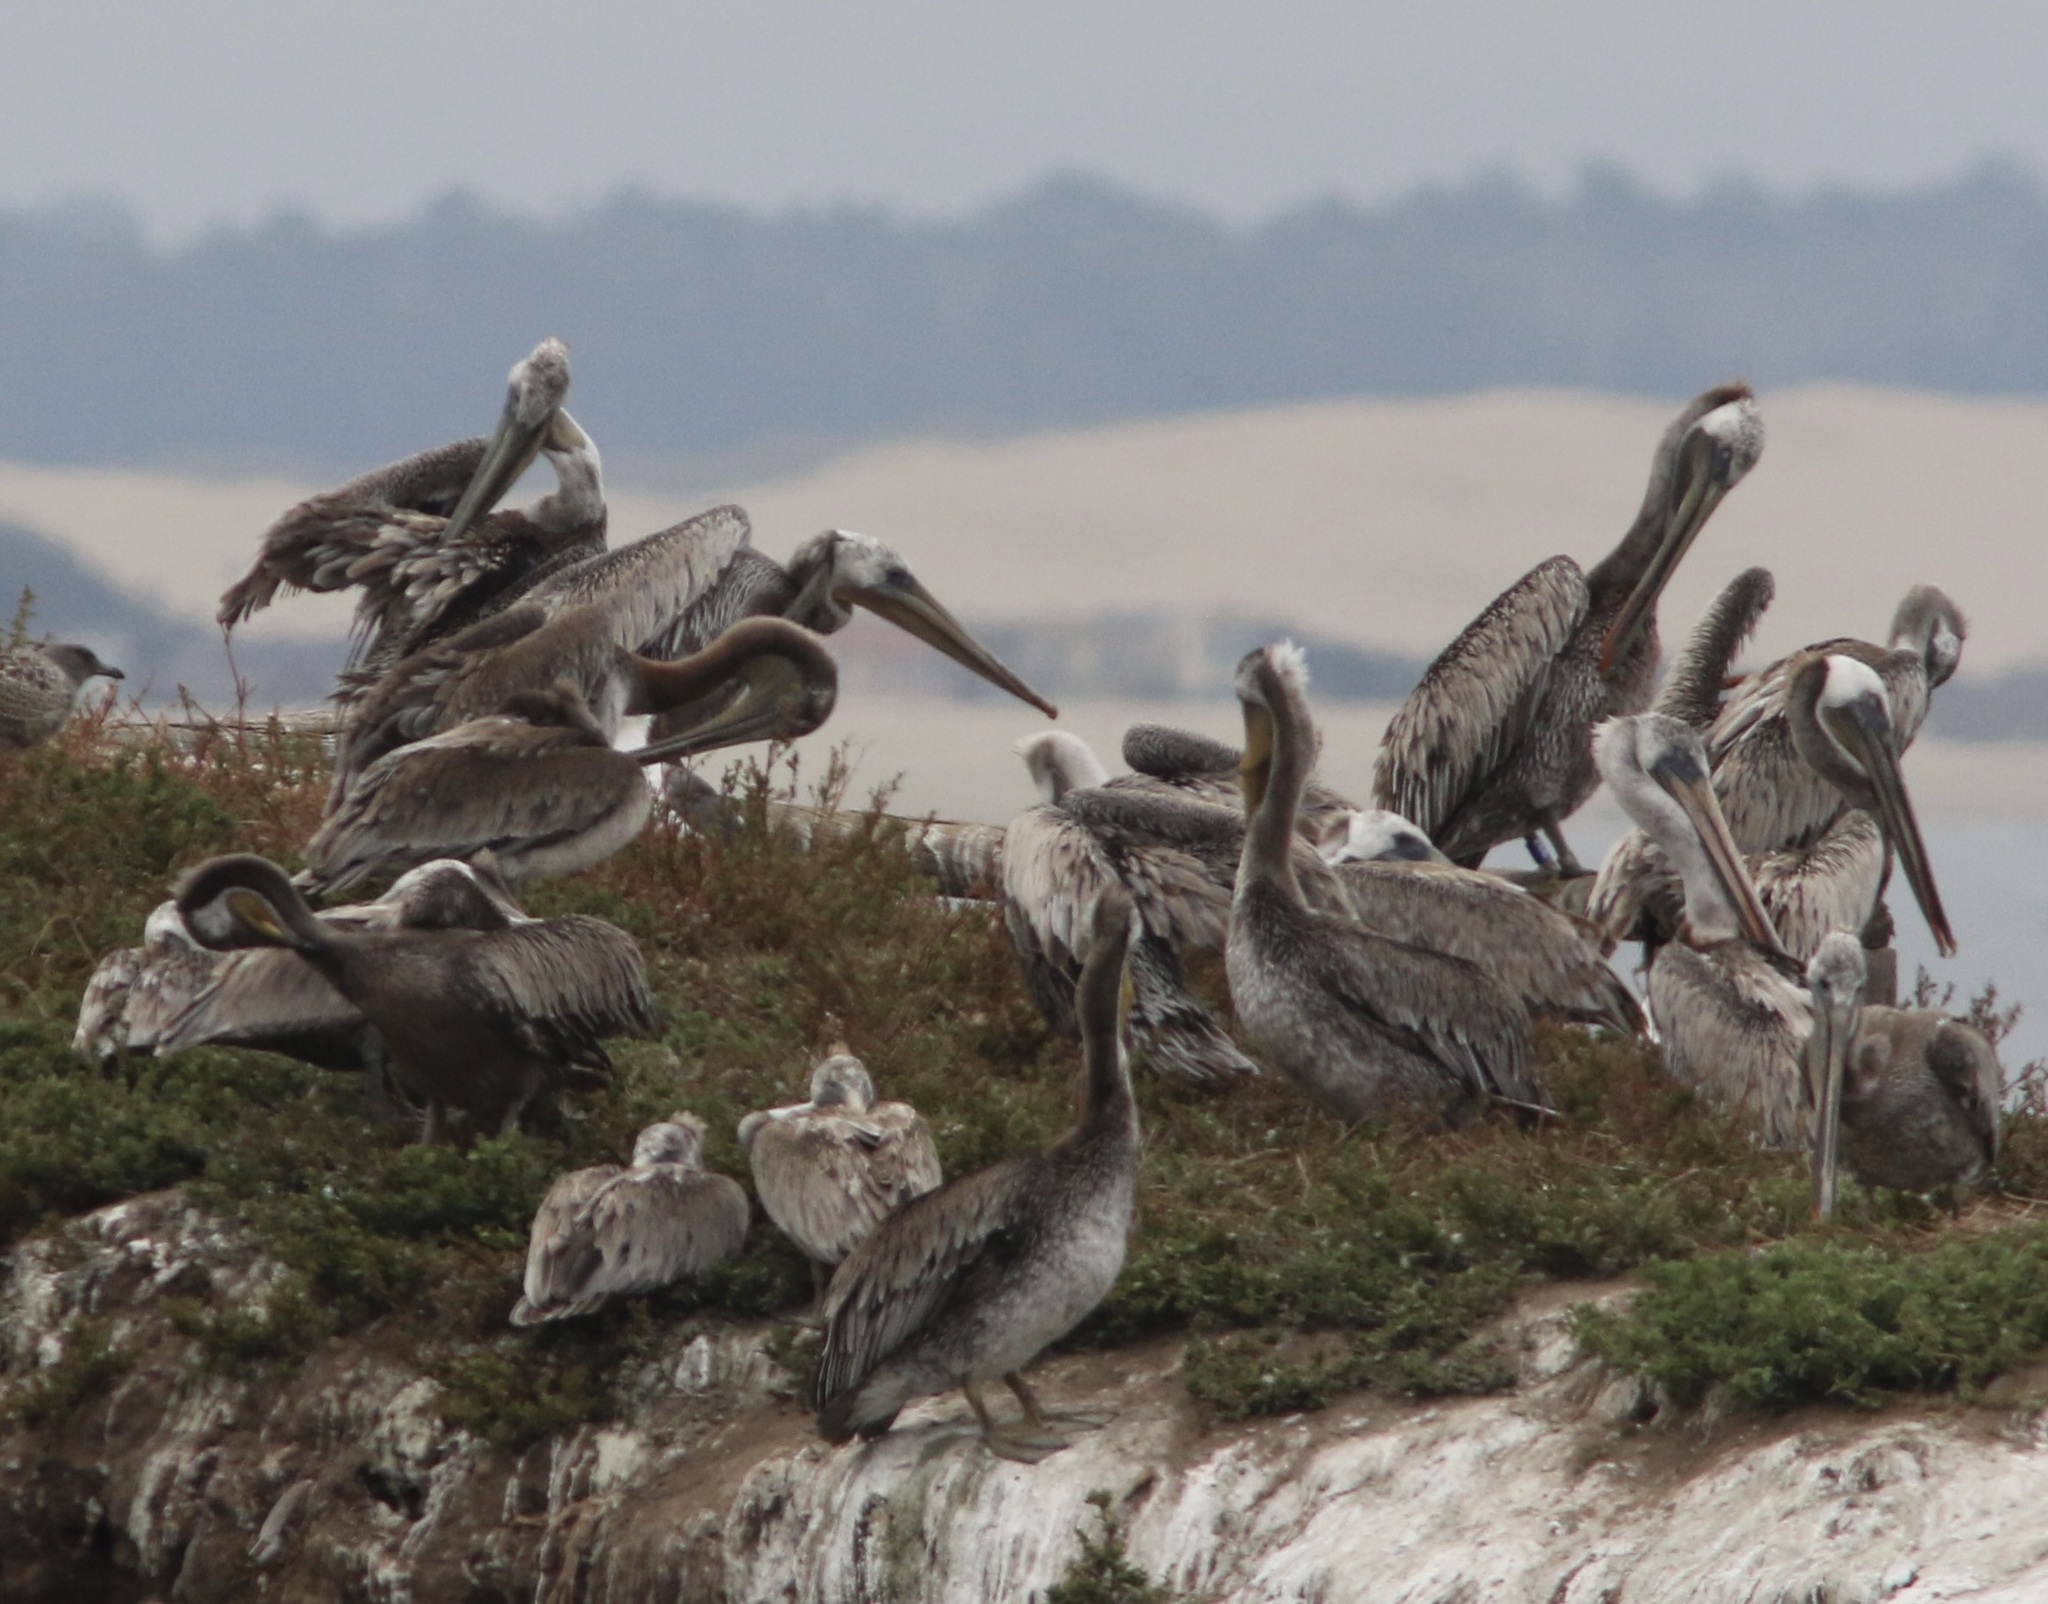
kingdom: Animalia
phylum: Chordata
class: Aves
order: Pelecaniformes
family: Pelecanidae
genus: Pelecanus
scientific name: Pelecanus occidentalis
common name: Brown pelican
